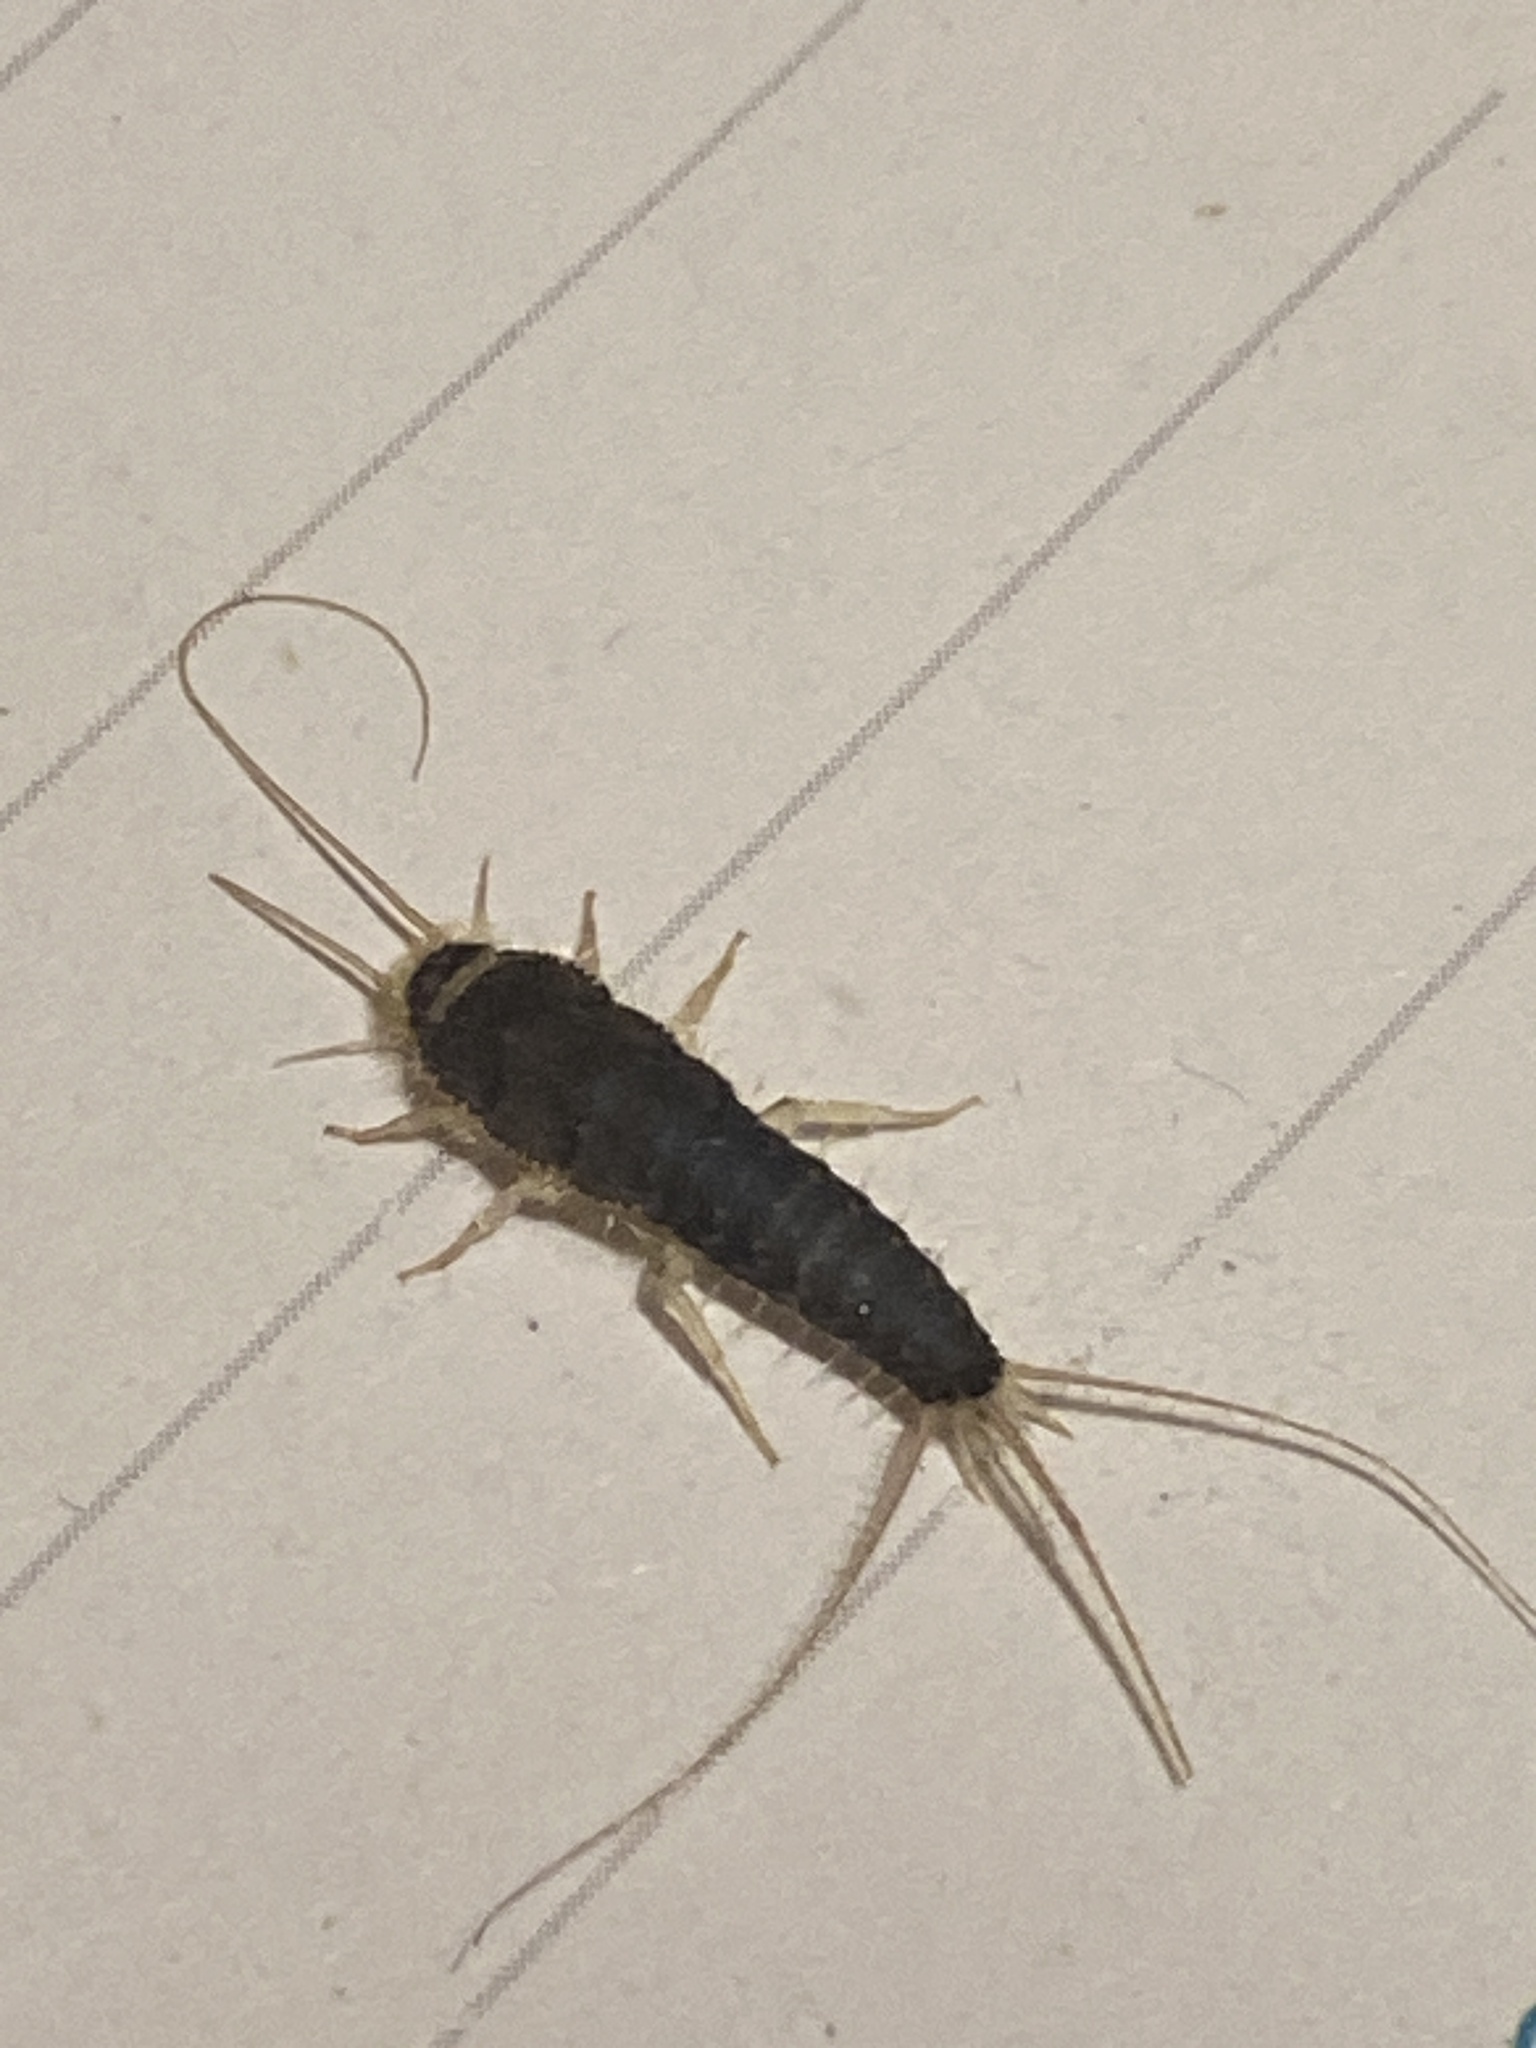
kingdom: Animalia
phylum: Arthropoda
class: Insecta
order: Zygentoma
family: Lepismatidae
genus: Ctenolepisma
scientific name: Ctenolepisma longicaudatum
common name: Silverfish
